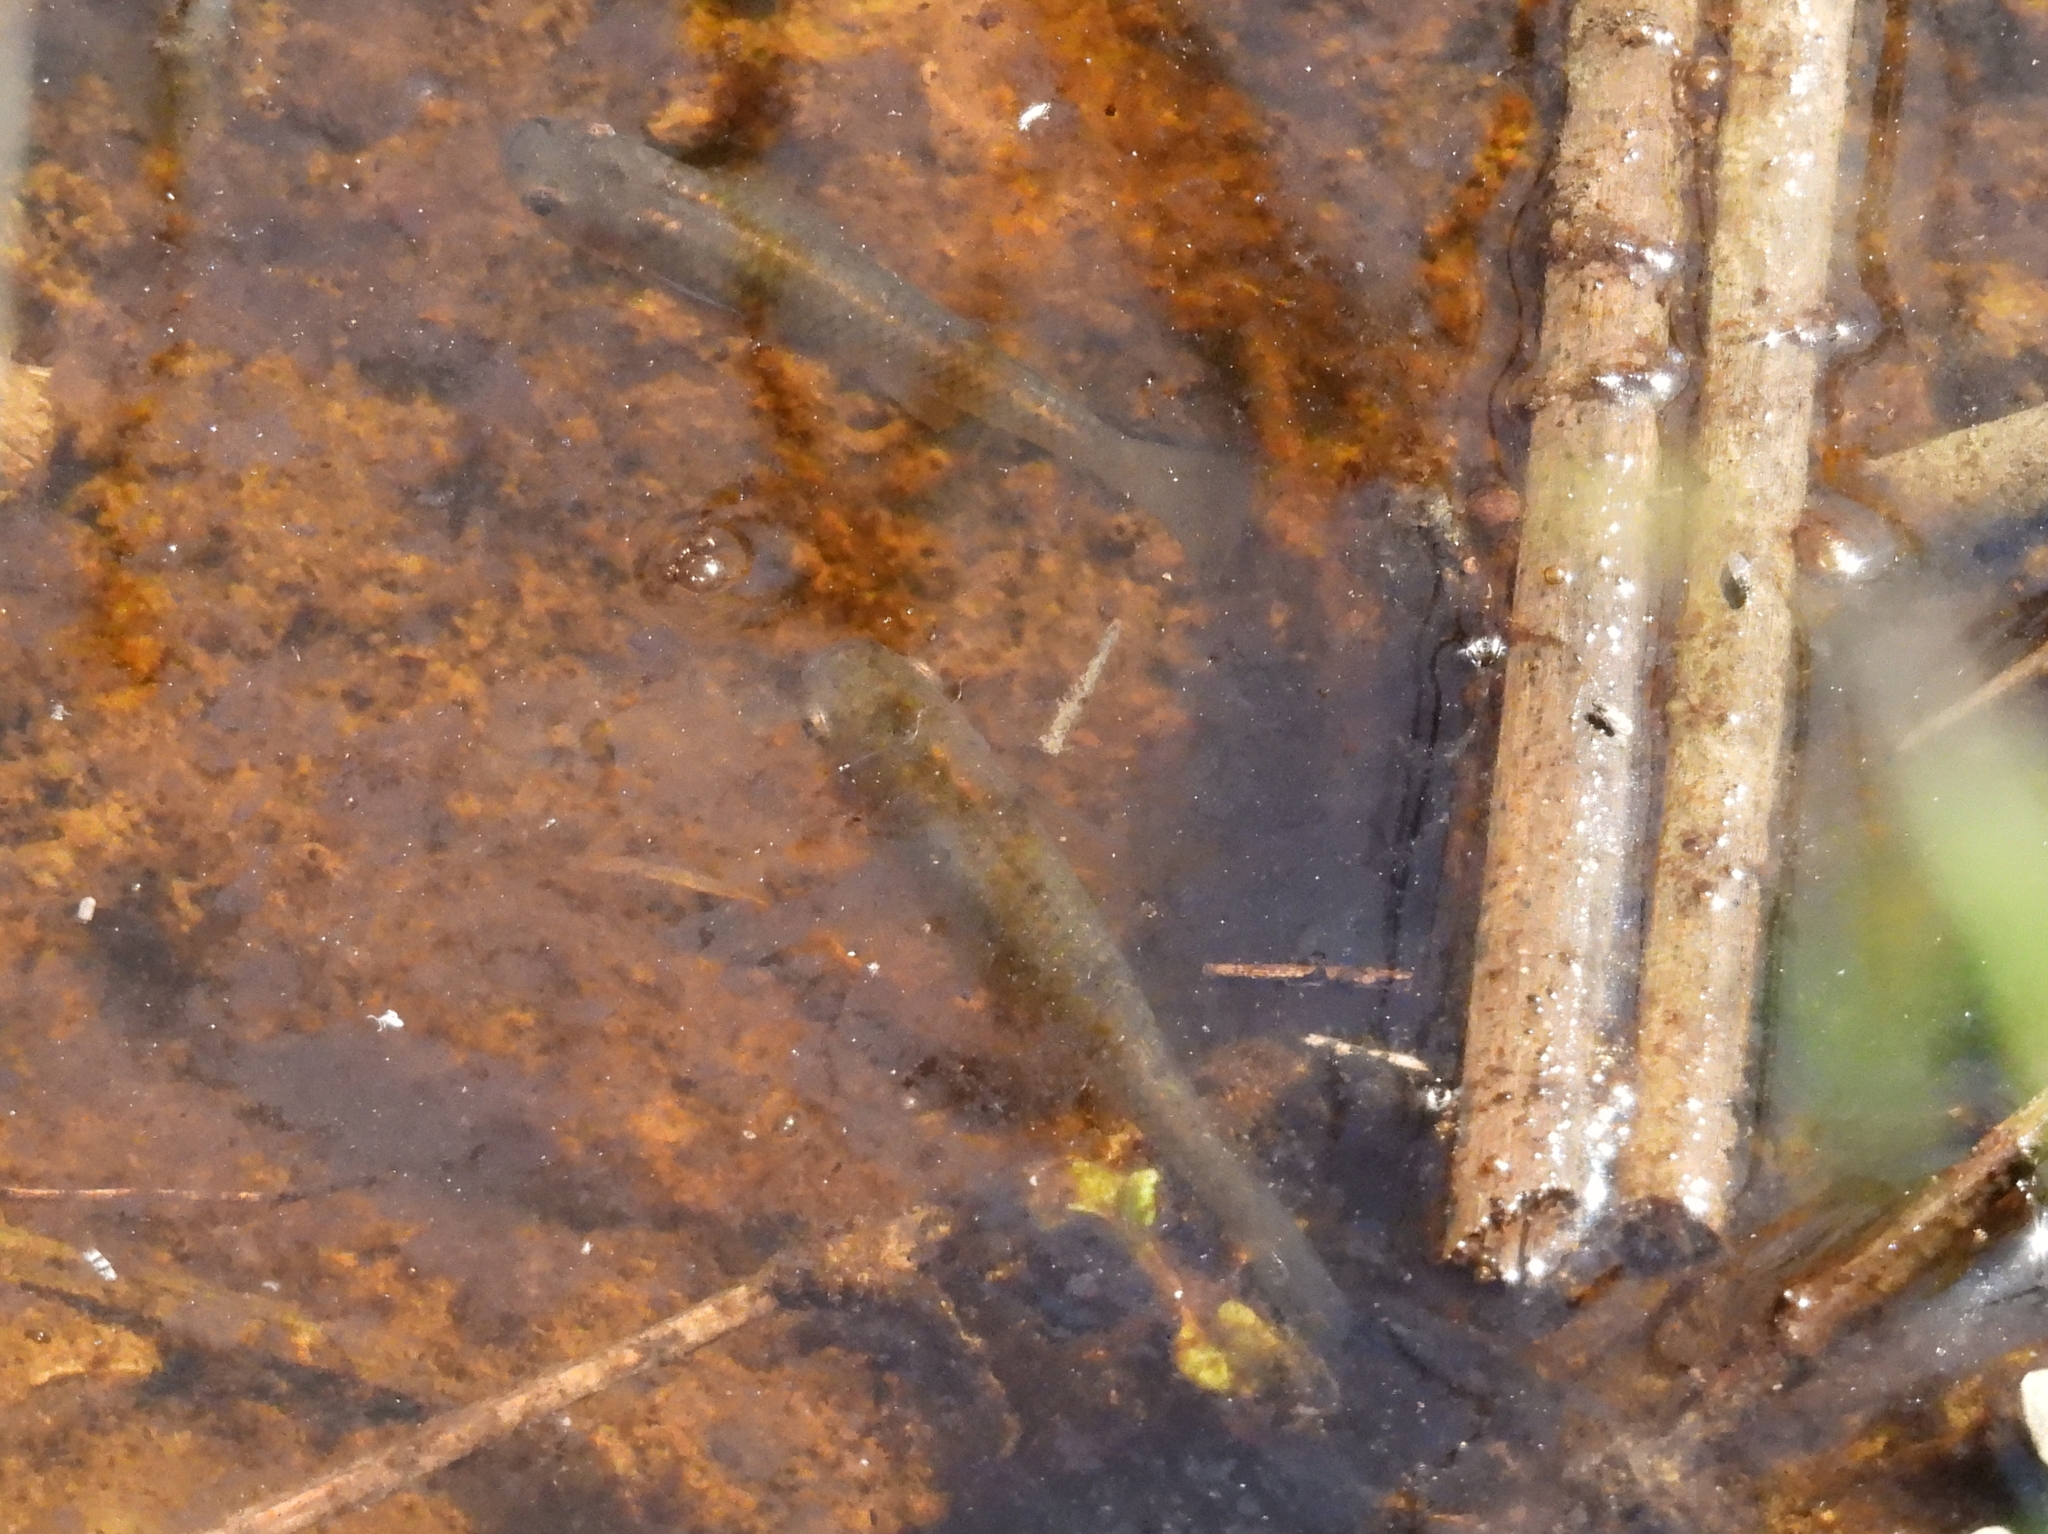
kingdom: Animalia
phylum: Chordata
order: Cyprinodontiformes
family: Poeciliidae
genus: Gambusia
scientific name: Gambusia affinis
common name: Mosquitofish
